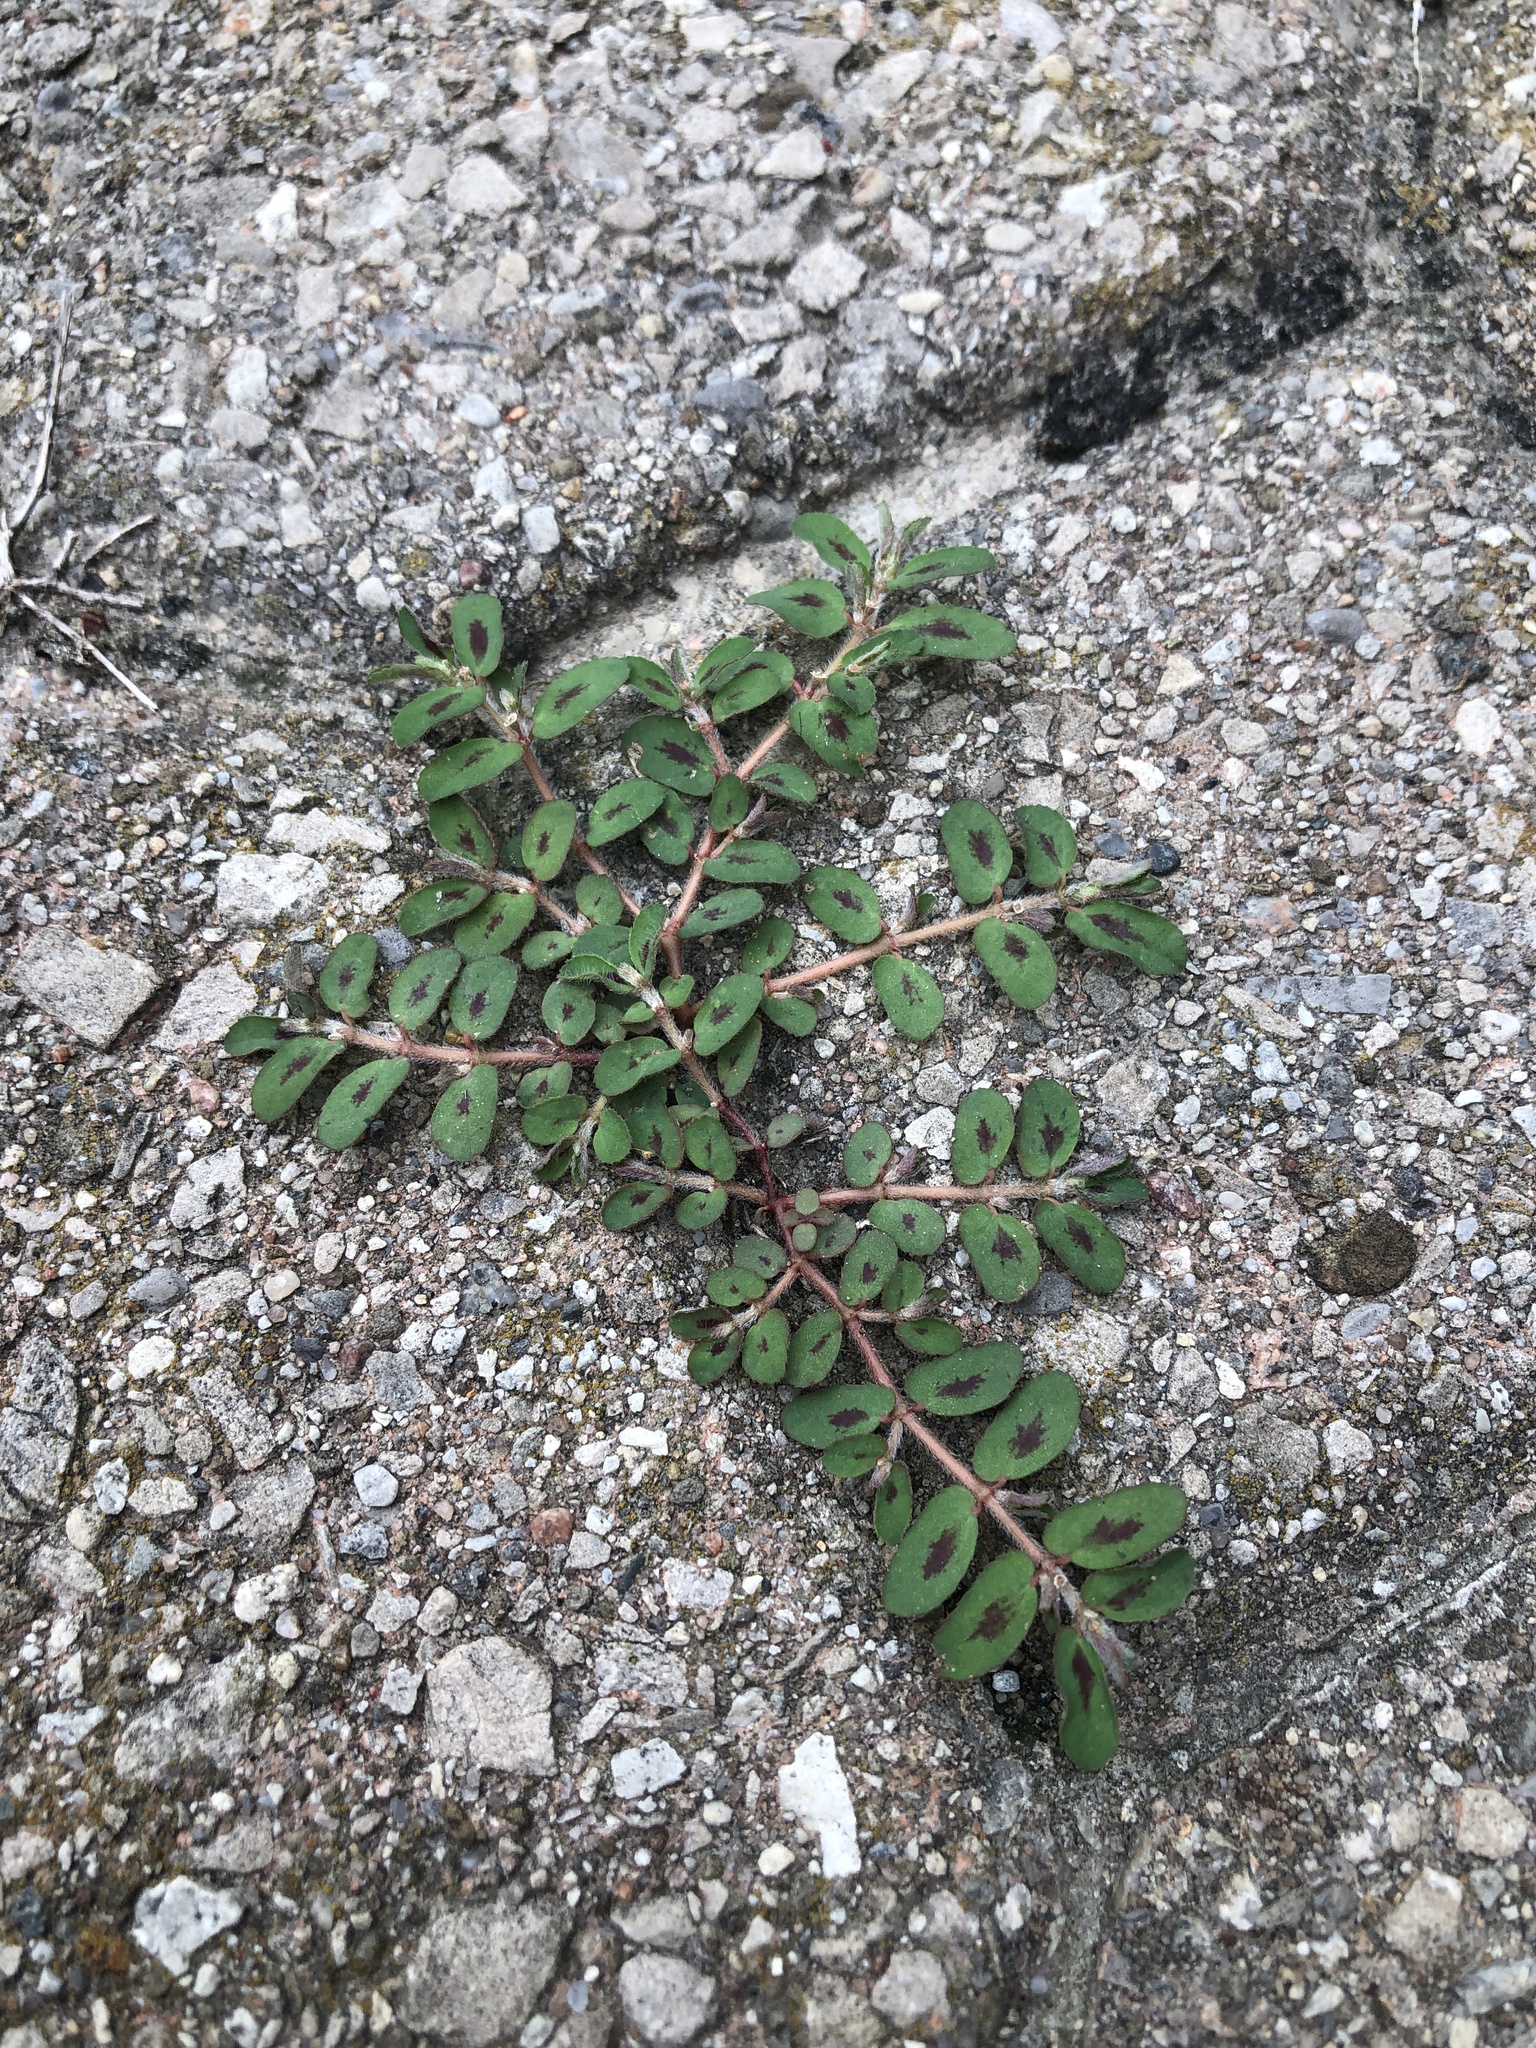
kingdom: Plantae
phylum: Tracheophyta
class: Magnoliopsida
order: Malpighiales
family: Euphorbiaceae
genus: Euphorbia
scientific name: Euphorbia maculata
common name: Spotted spurge
